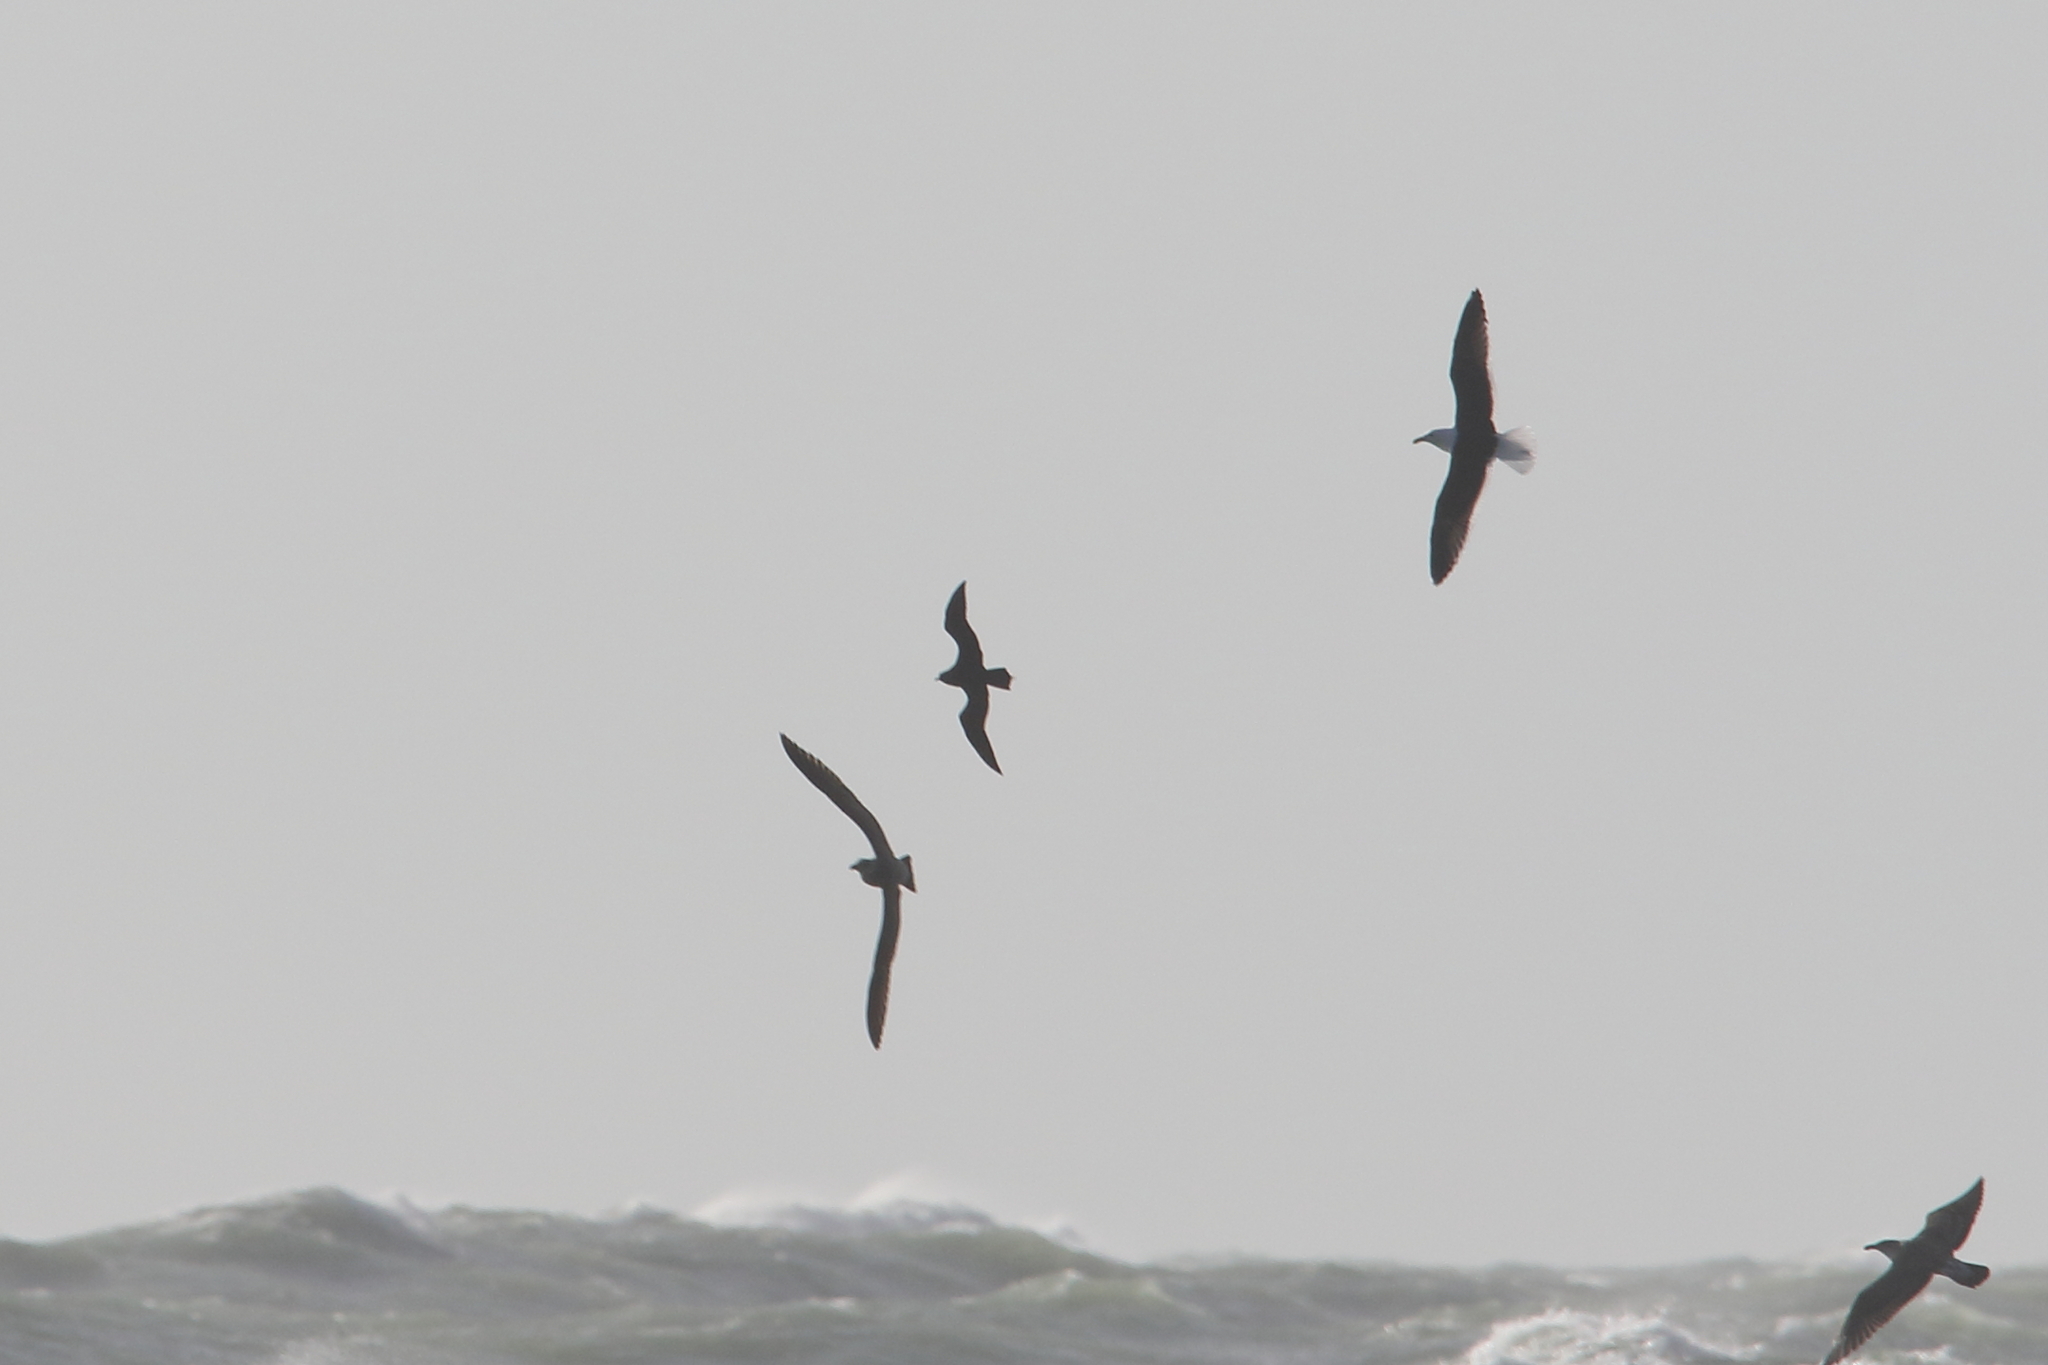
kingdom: Animalia
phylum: Chordata
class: Aves
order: Charadriiformes
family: Stercorariidae
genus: Stercorarius
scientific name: Stercorarius parasiticus
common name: Parasitic jaeger
